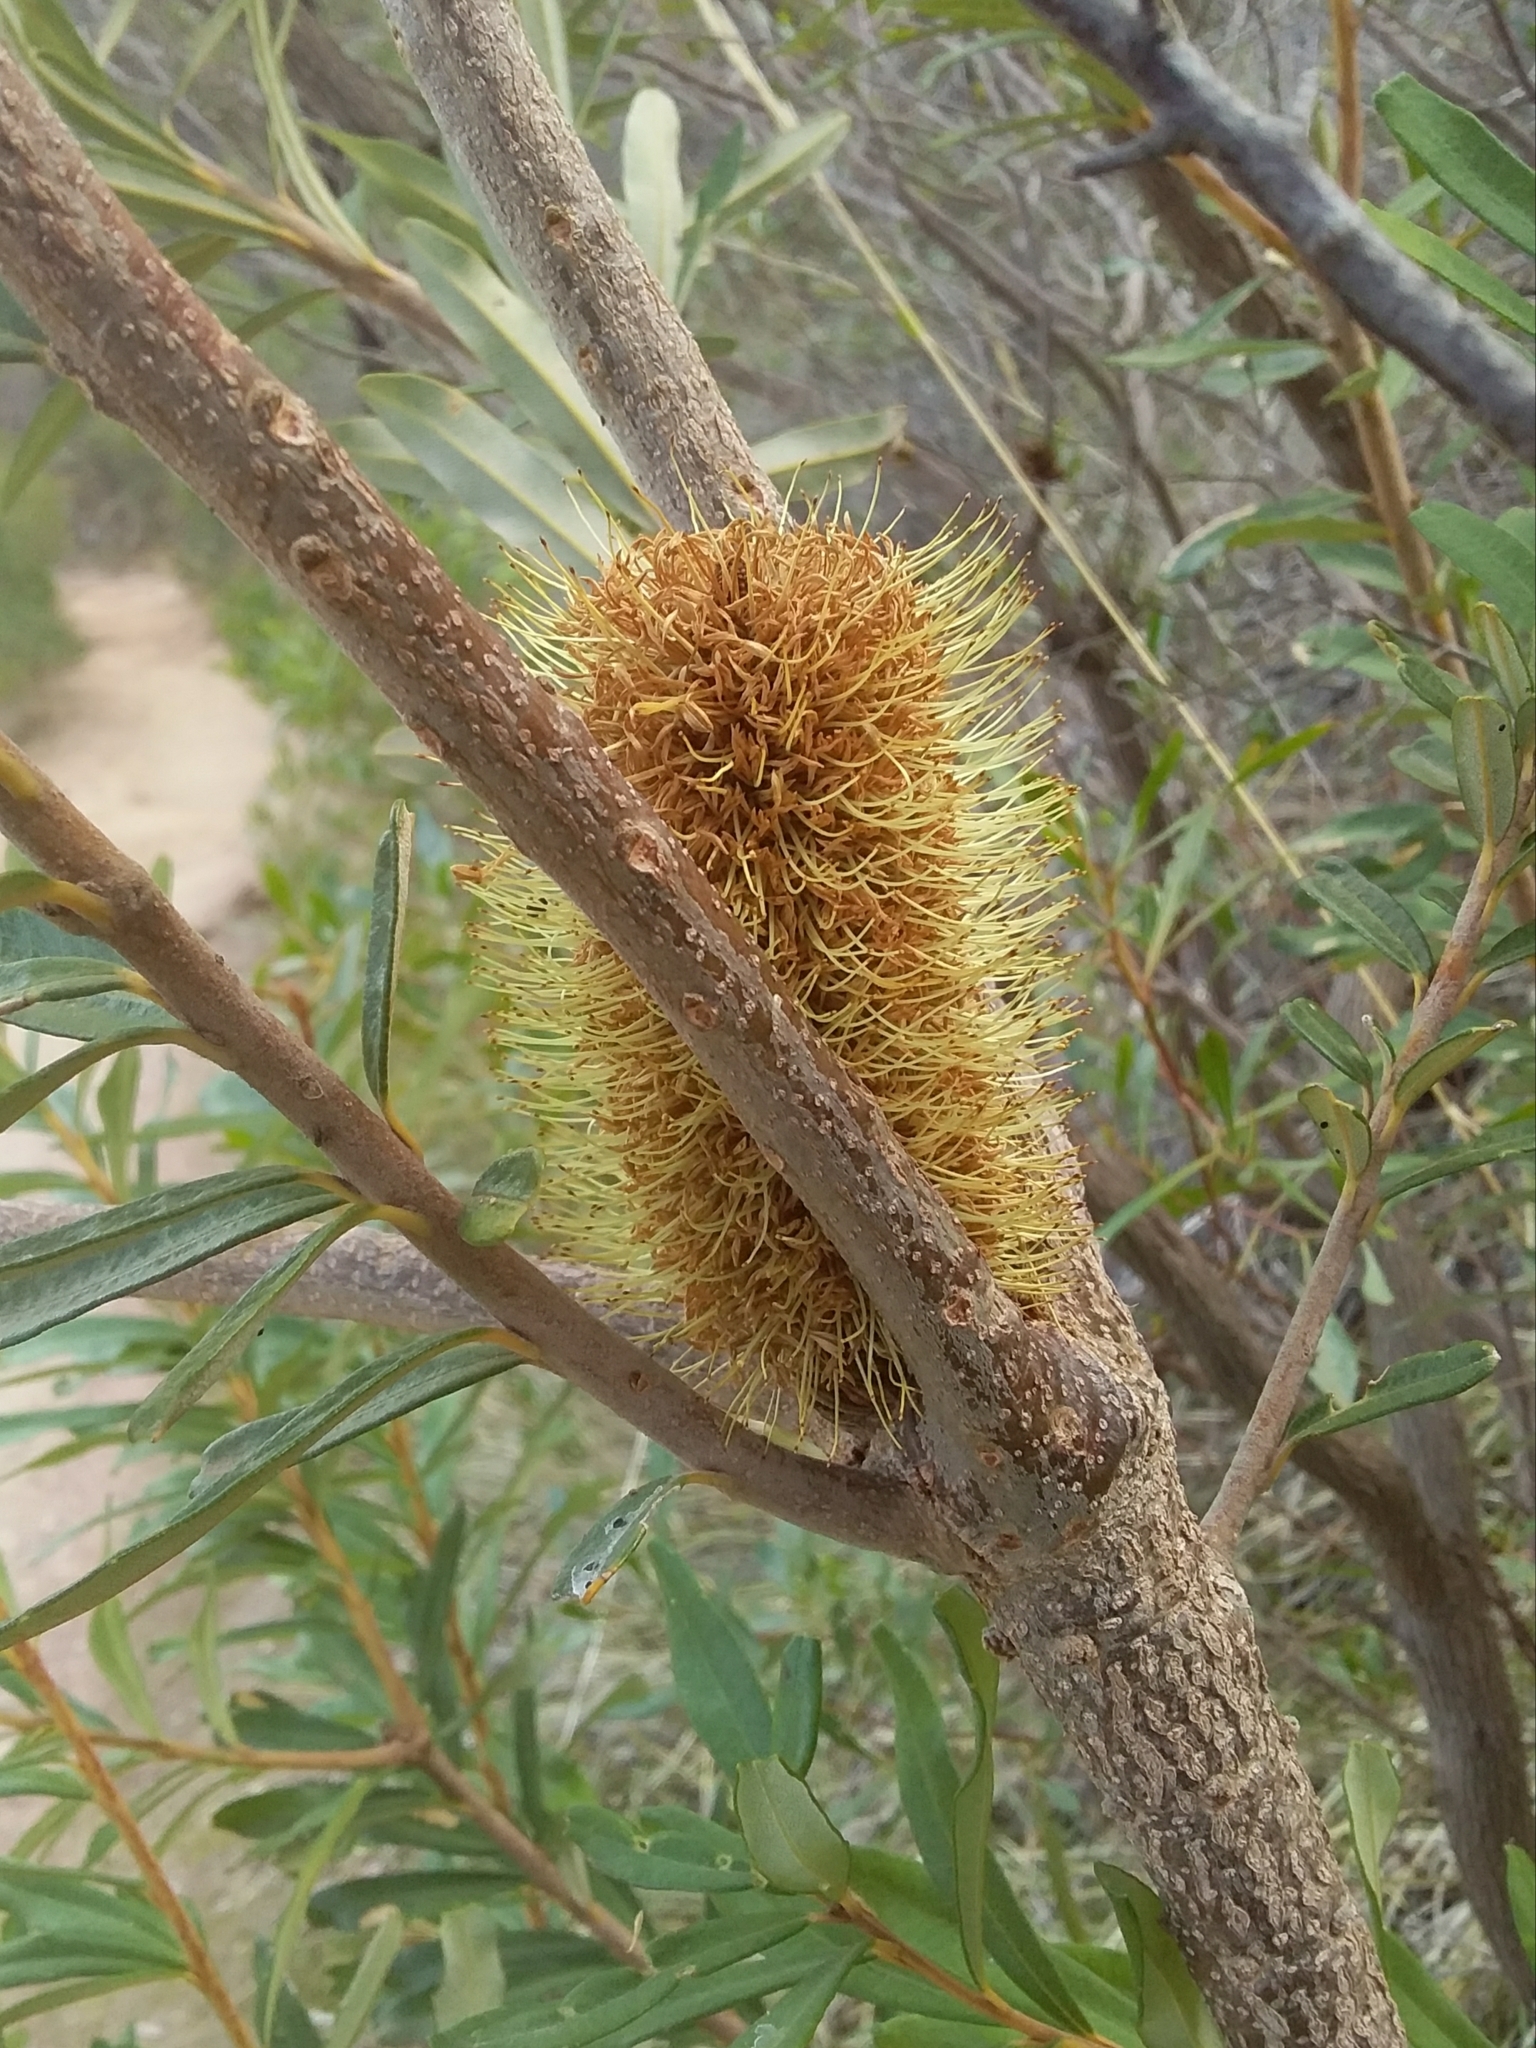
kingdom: Plantae
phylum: Tracheophyta
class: Magnoliopsida
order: Proteales
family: Proteaceae
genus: Banksia
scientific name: Banksia marginata
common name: Silver banksia
